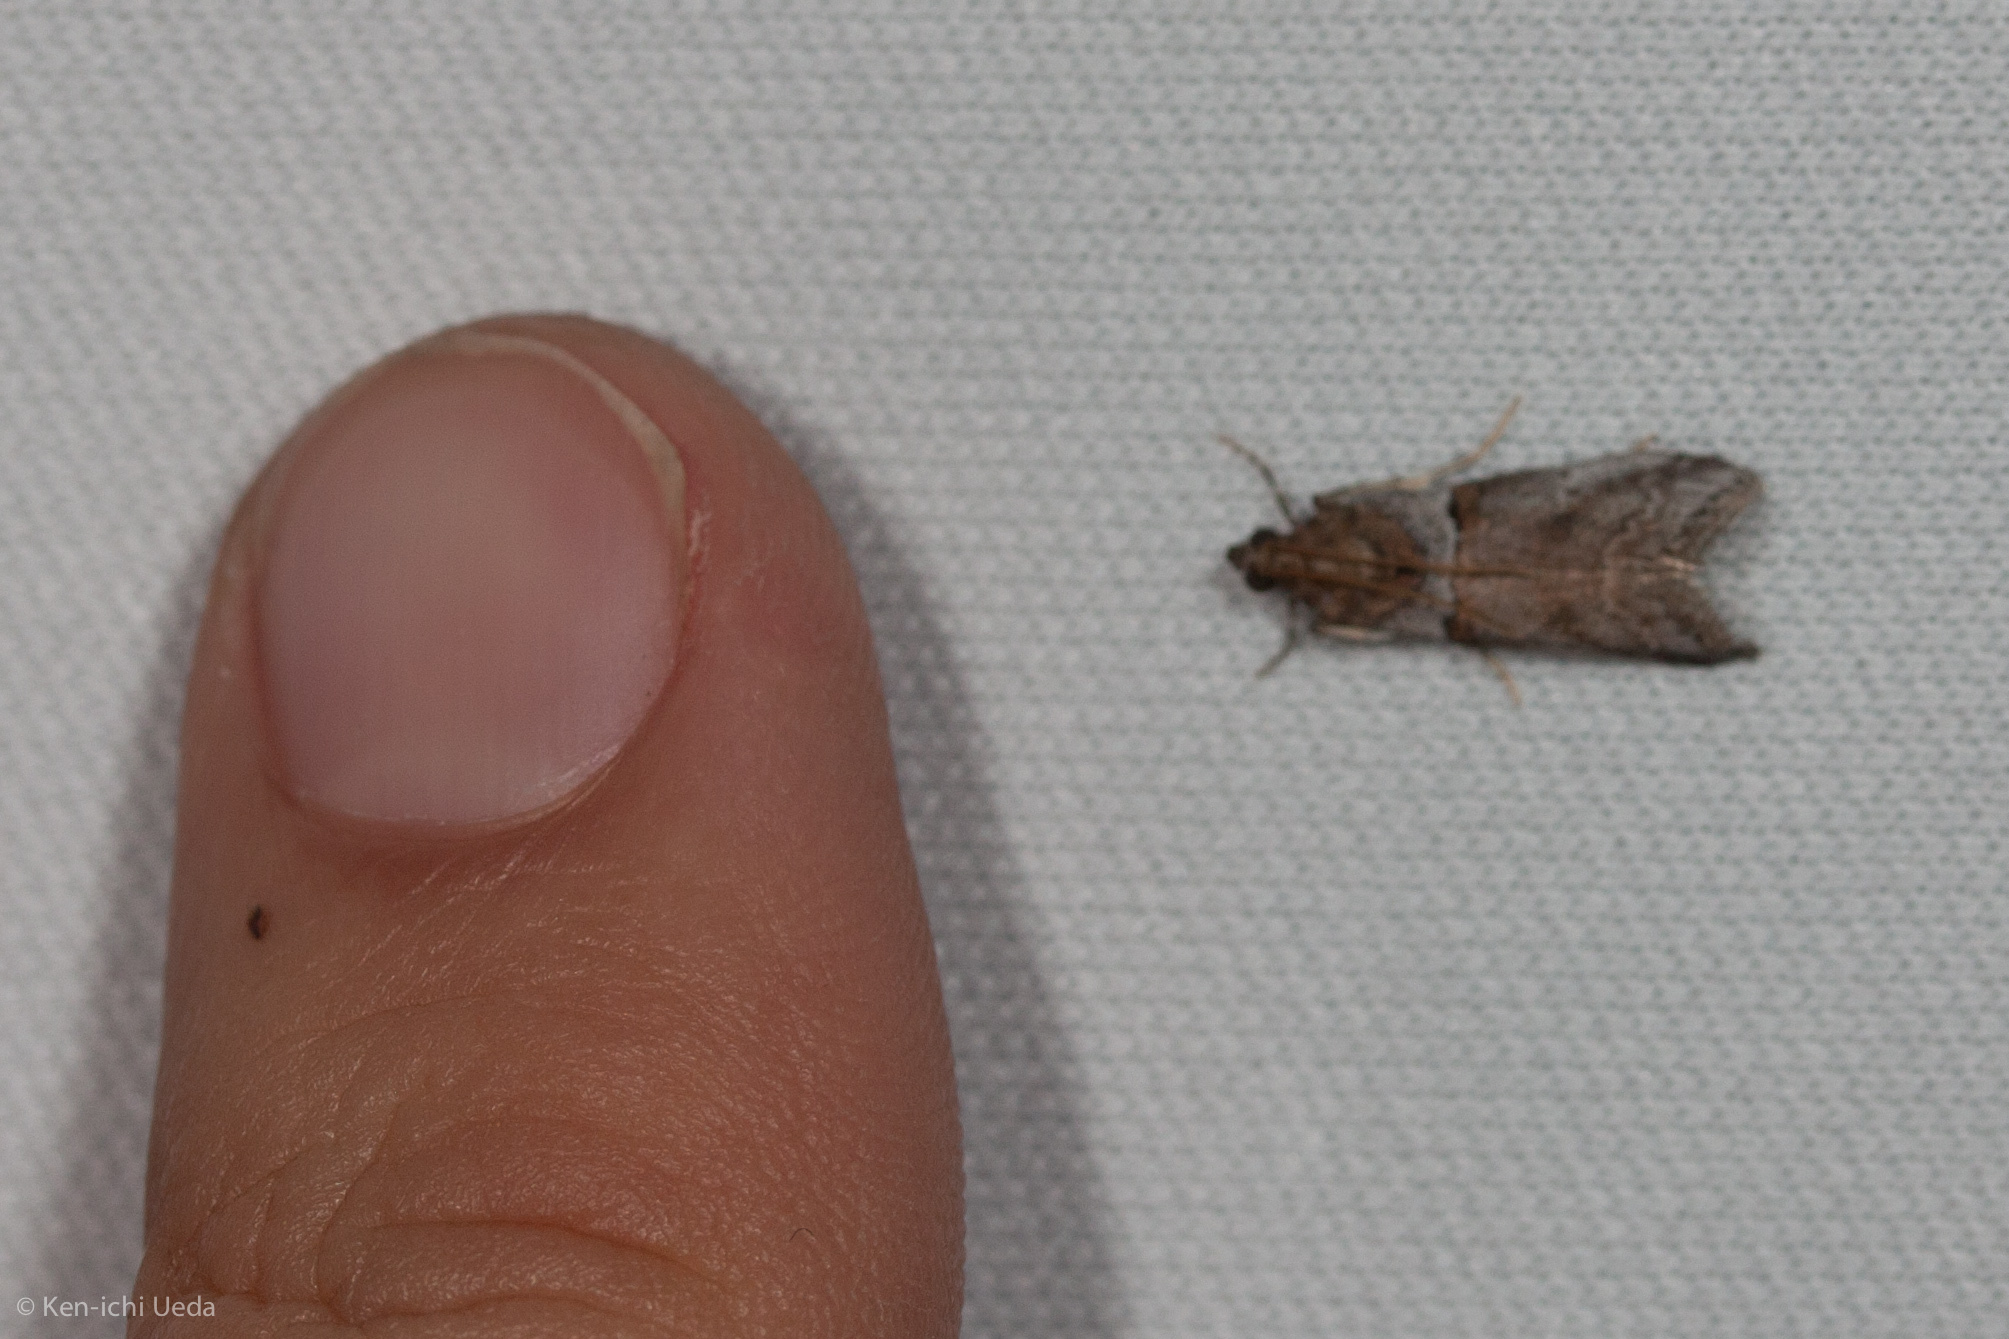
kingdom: Animalia
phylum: Arthropoda
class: Insecta
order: Lepidoptera
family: Pyralidae
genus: Acrobasis
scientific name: Acrobasis comptella
